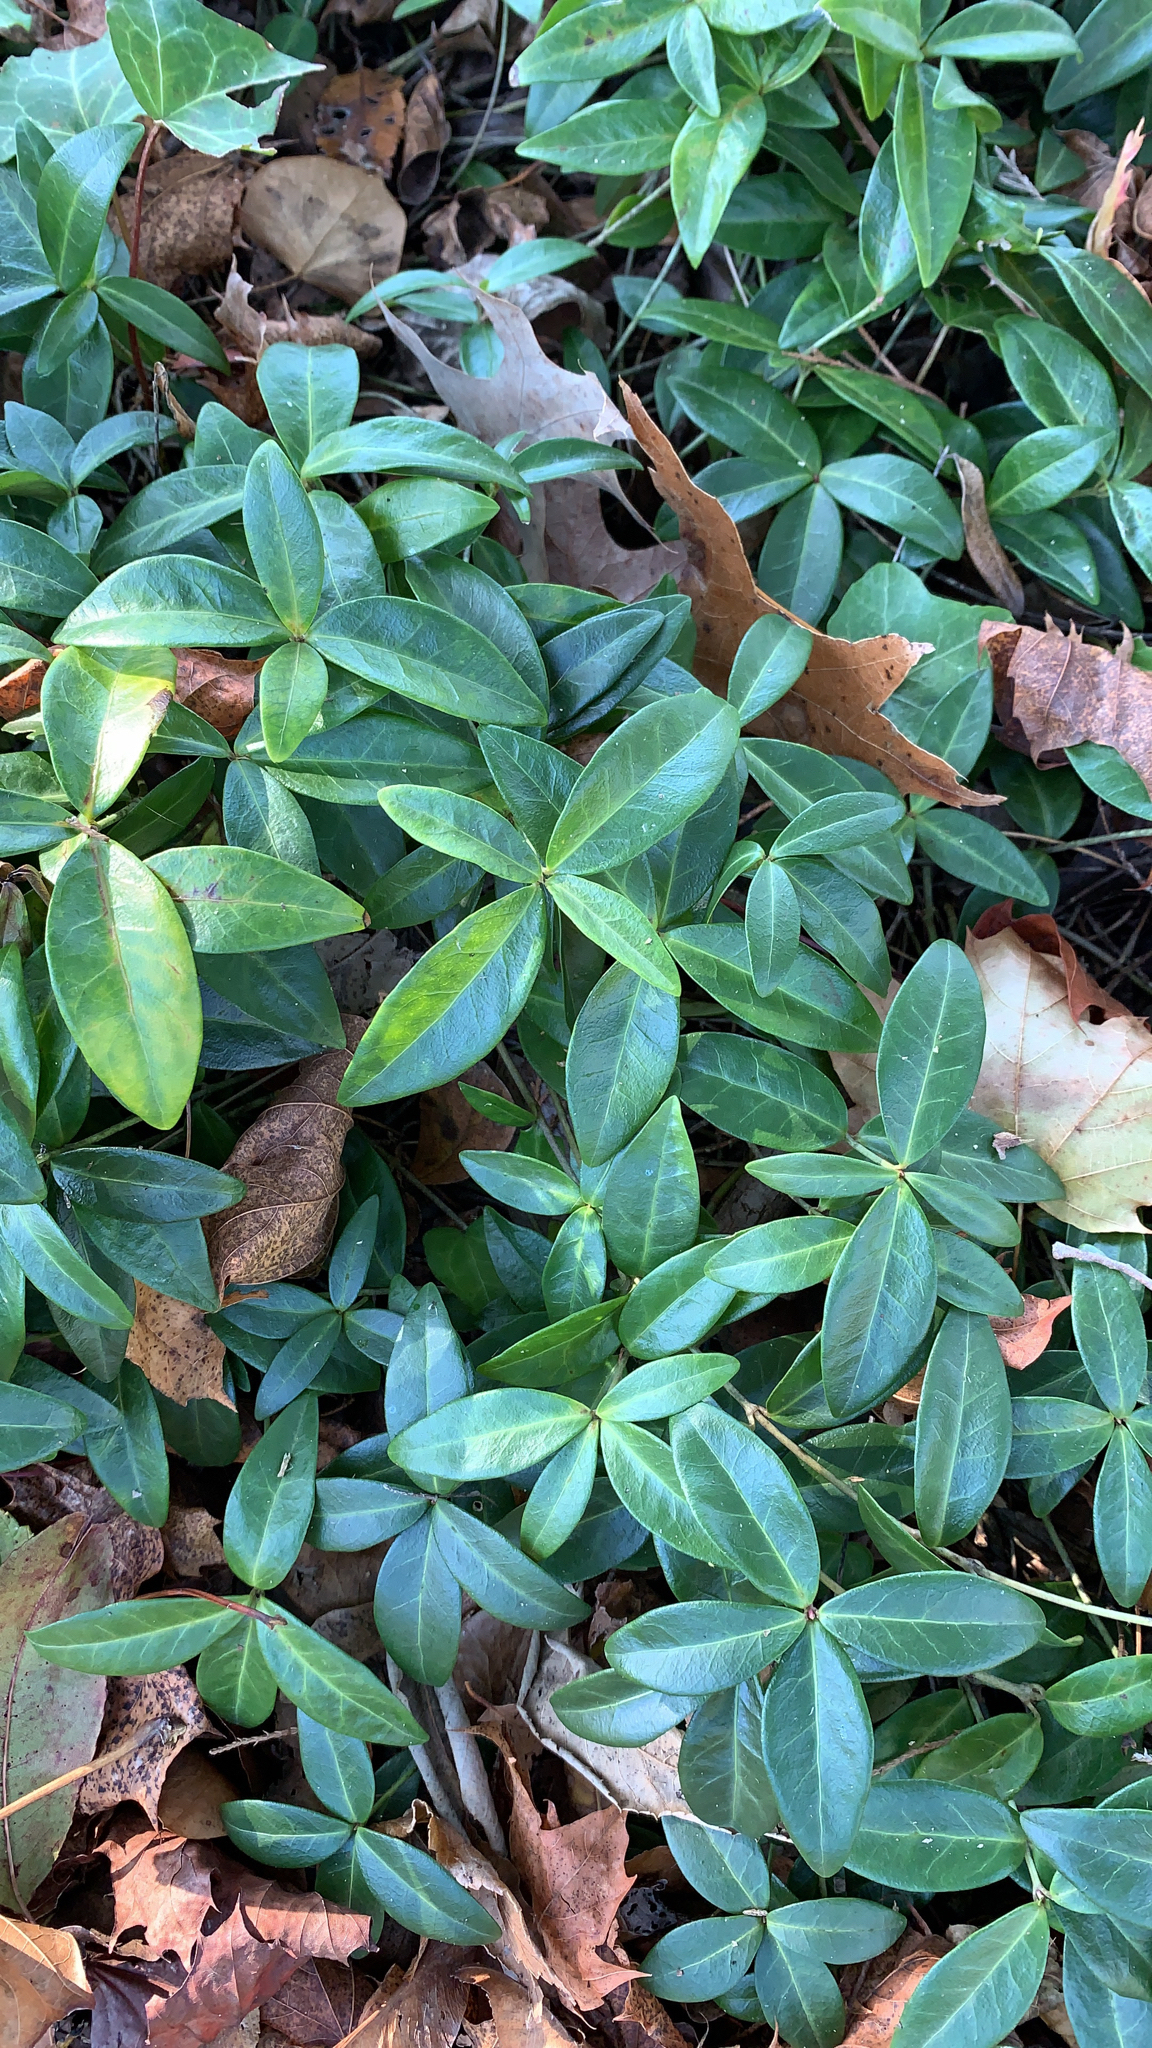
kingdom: Plantae
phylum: Tracheophyta
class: Magnoliopsida
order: Gentianales
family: Apocynaceae
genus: Vinca
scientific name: Vinca minor
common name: Lesser periwinkle
